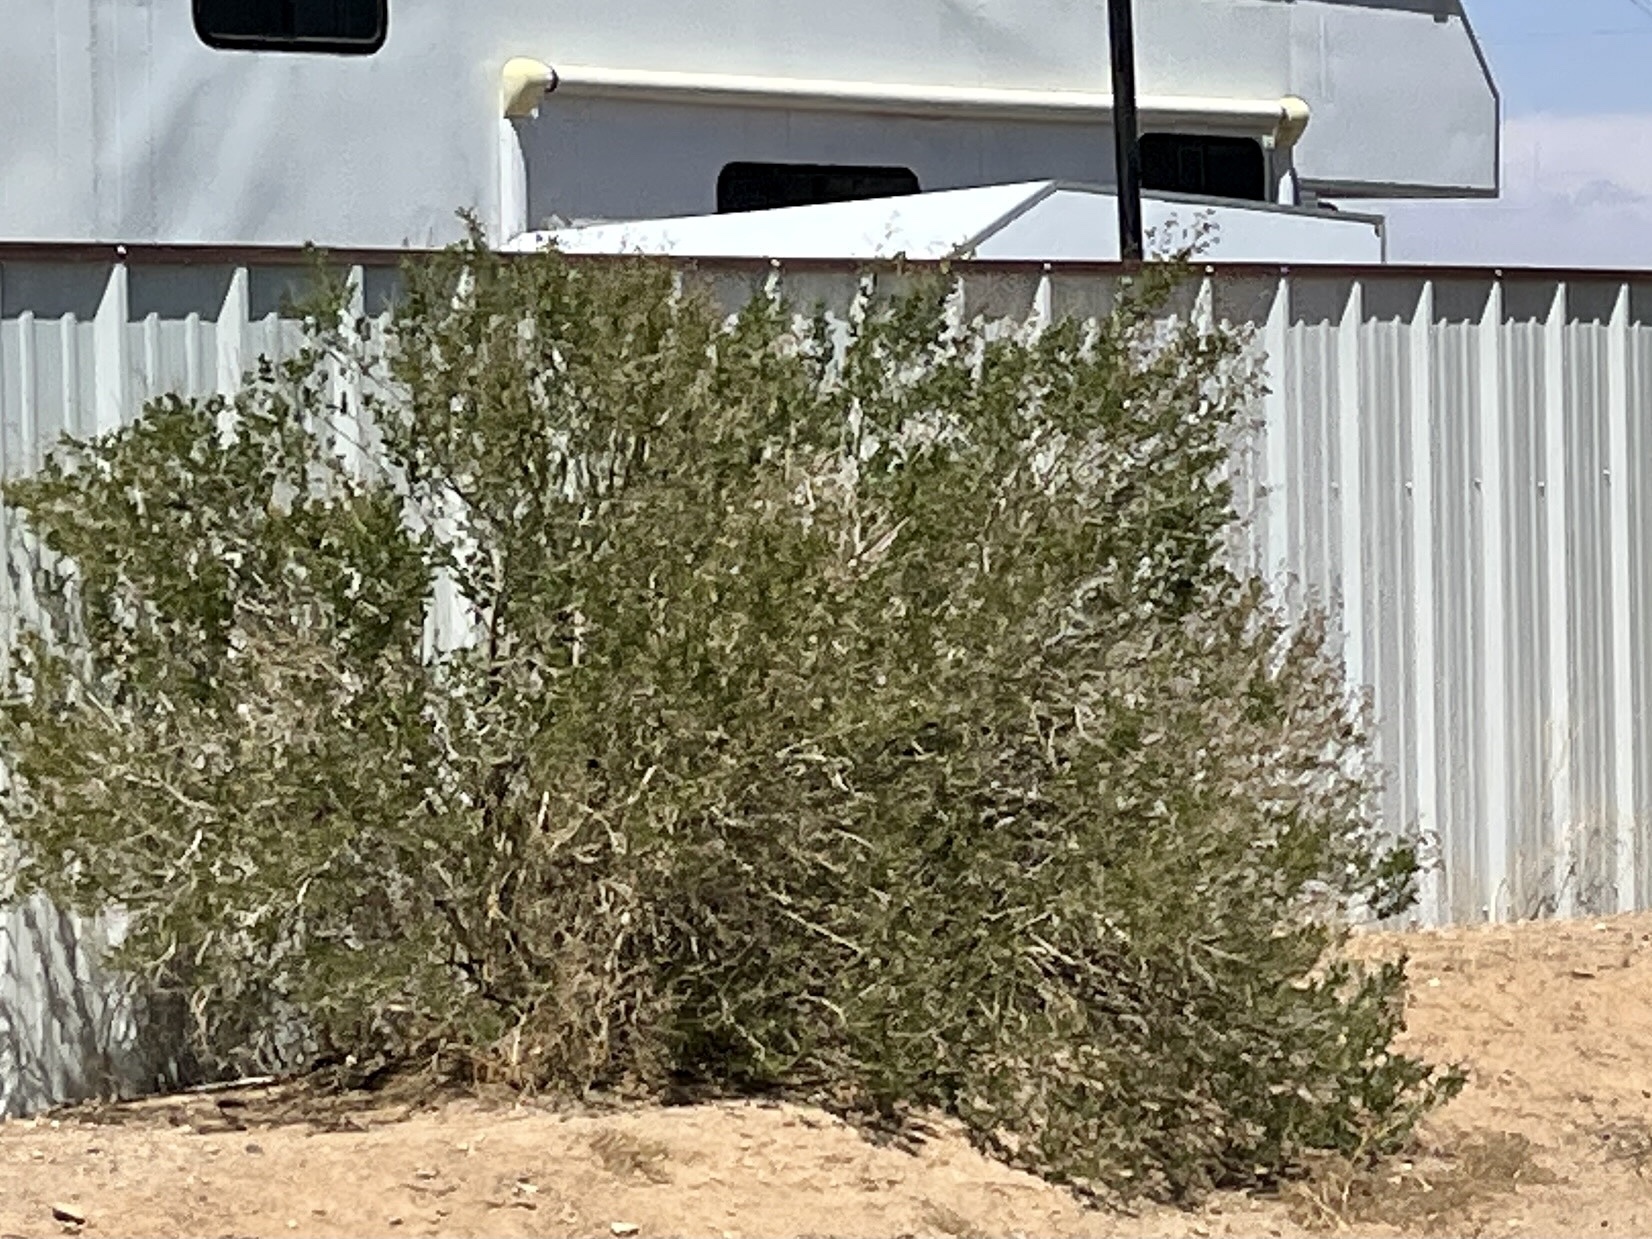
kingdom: Plantae
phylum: Tracheophyta
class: Magnoliopsida
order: Zygophyllales
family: Zygophyllaceae
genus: Larrea
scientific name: Larrea tridentata
